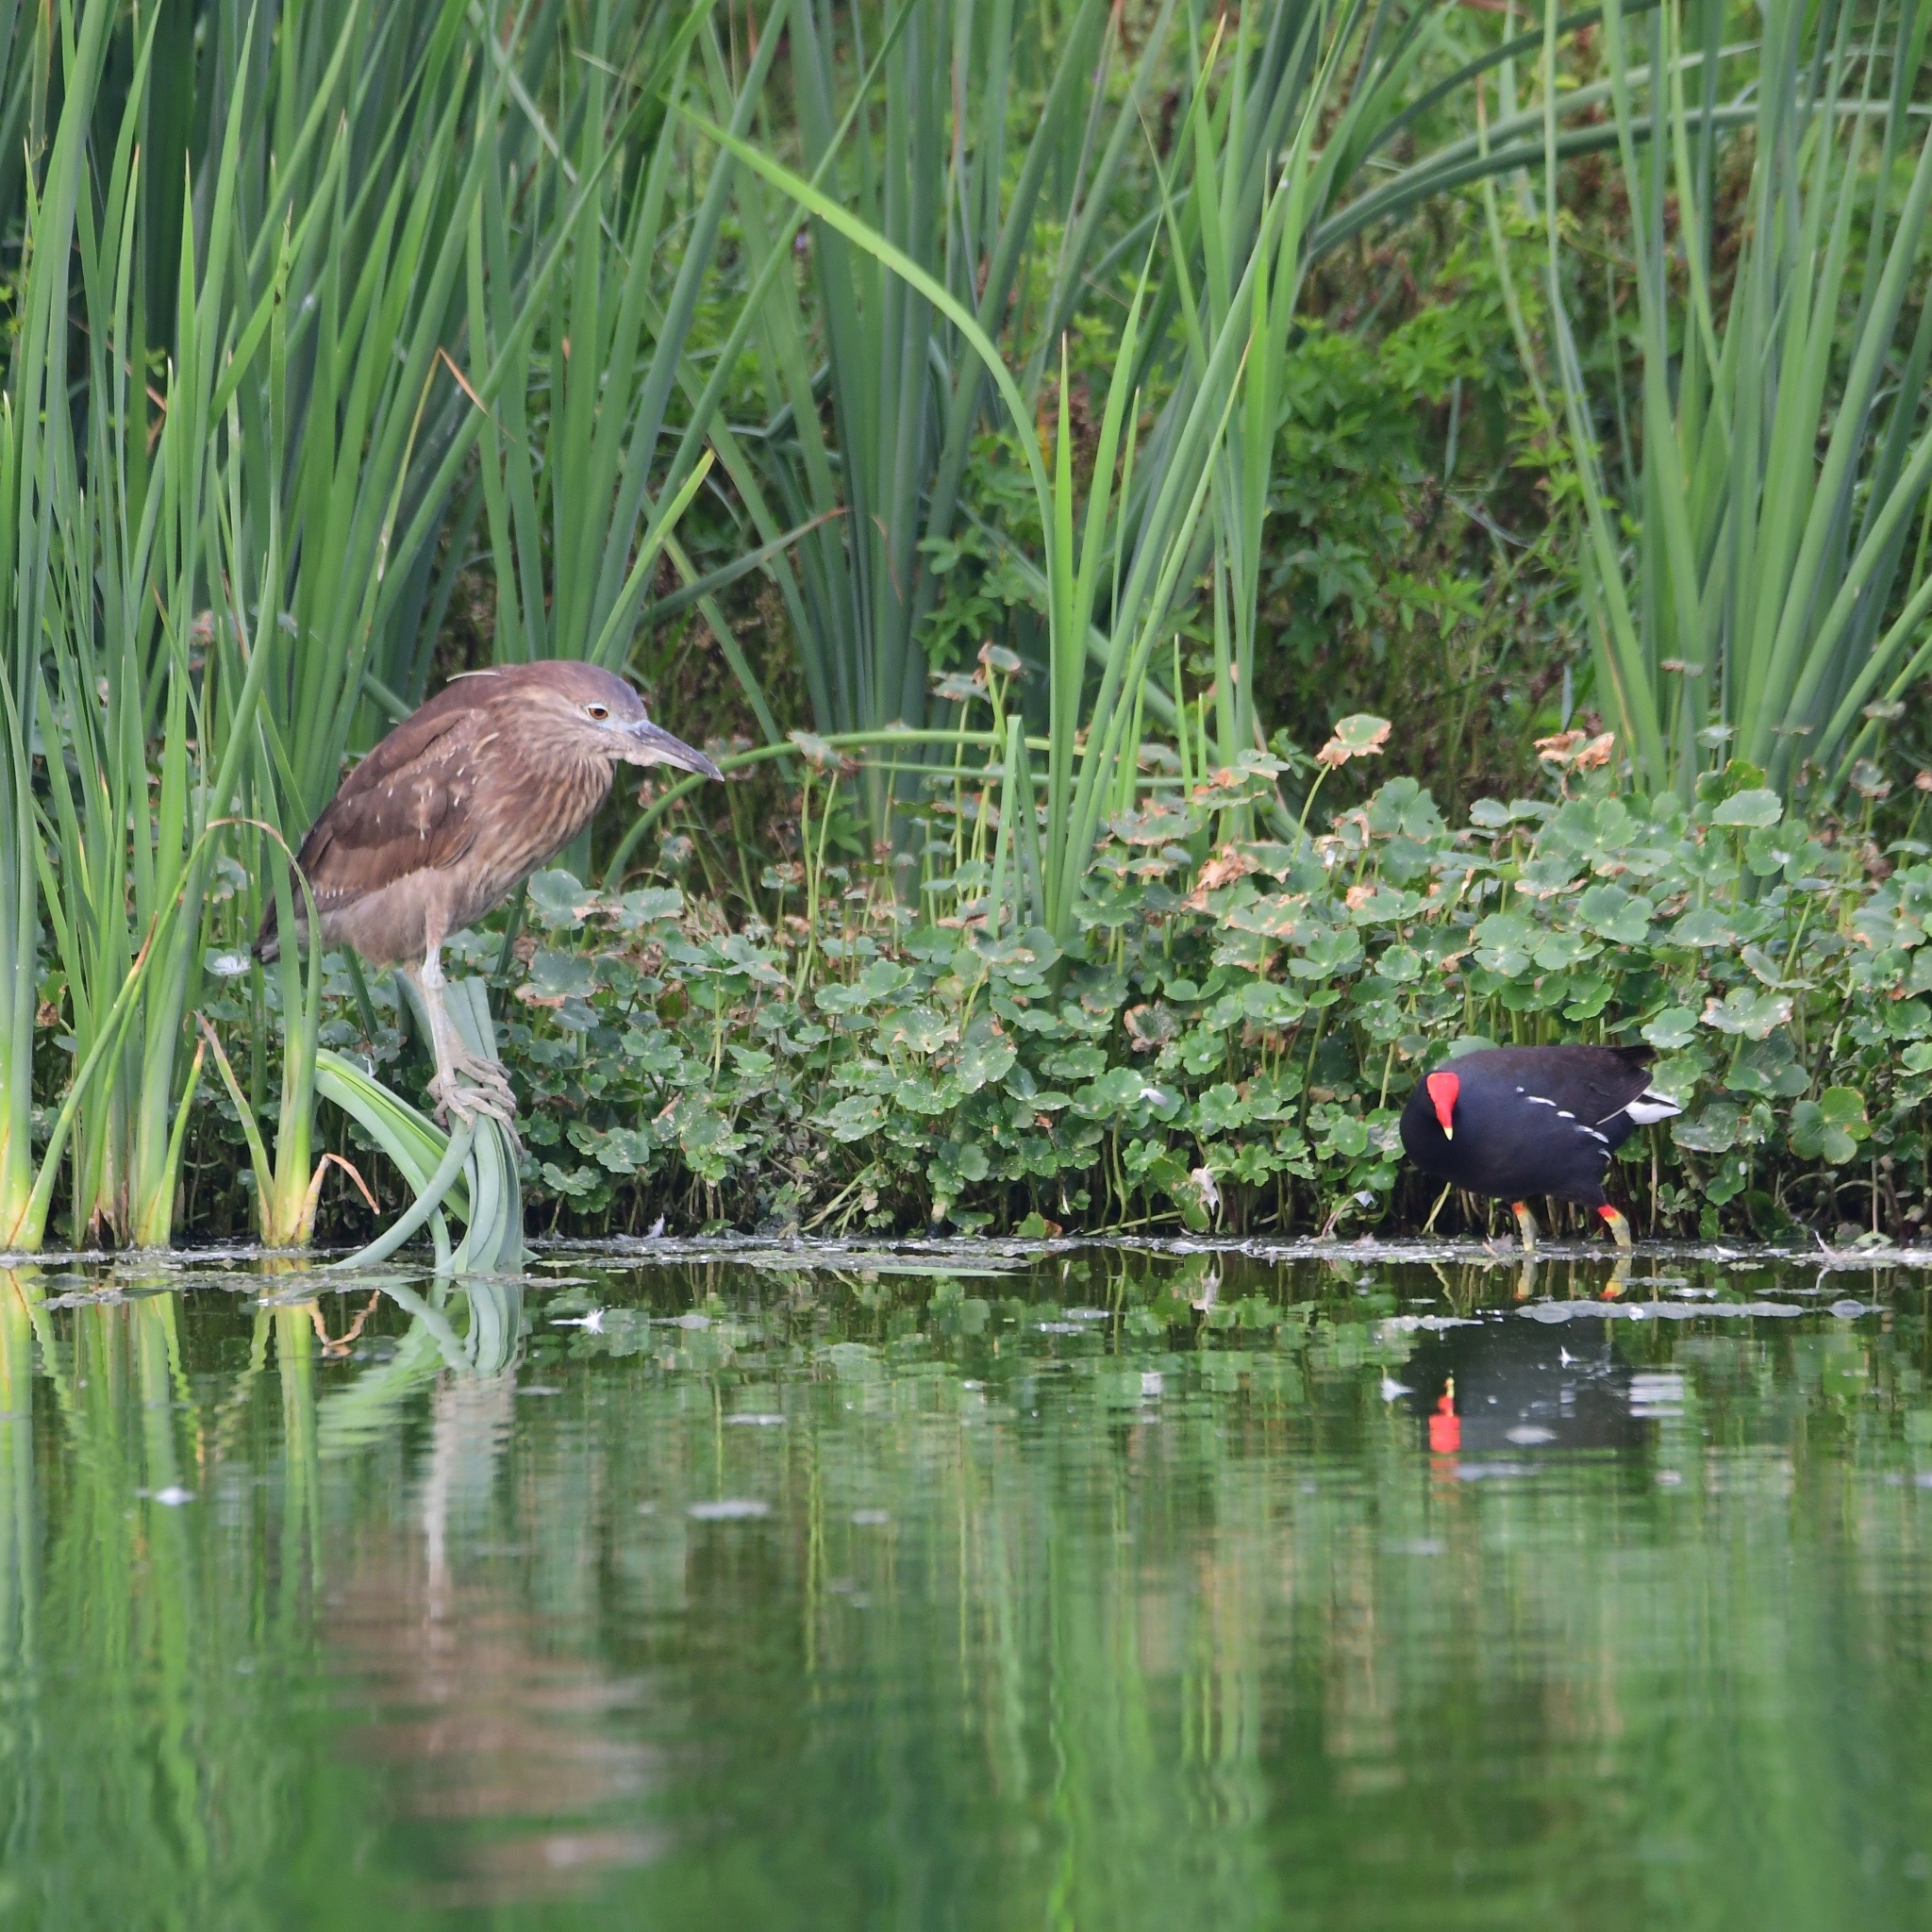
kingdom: Animalia
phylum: Chordata
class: Aves
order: Pelecaniformes
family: Ardeidae
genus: Nycticorax
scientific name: Nycticorax nycticorax
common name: Black-crowned night heron
